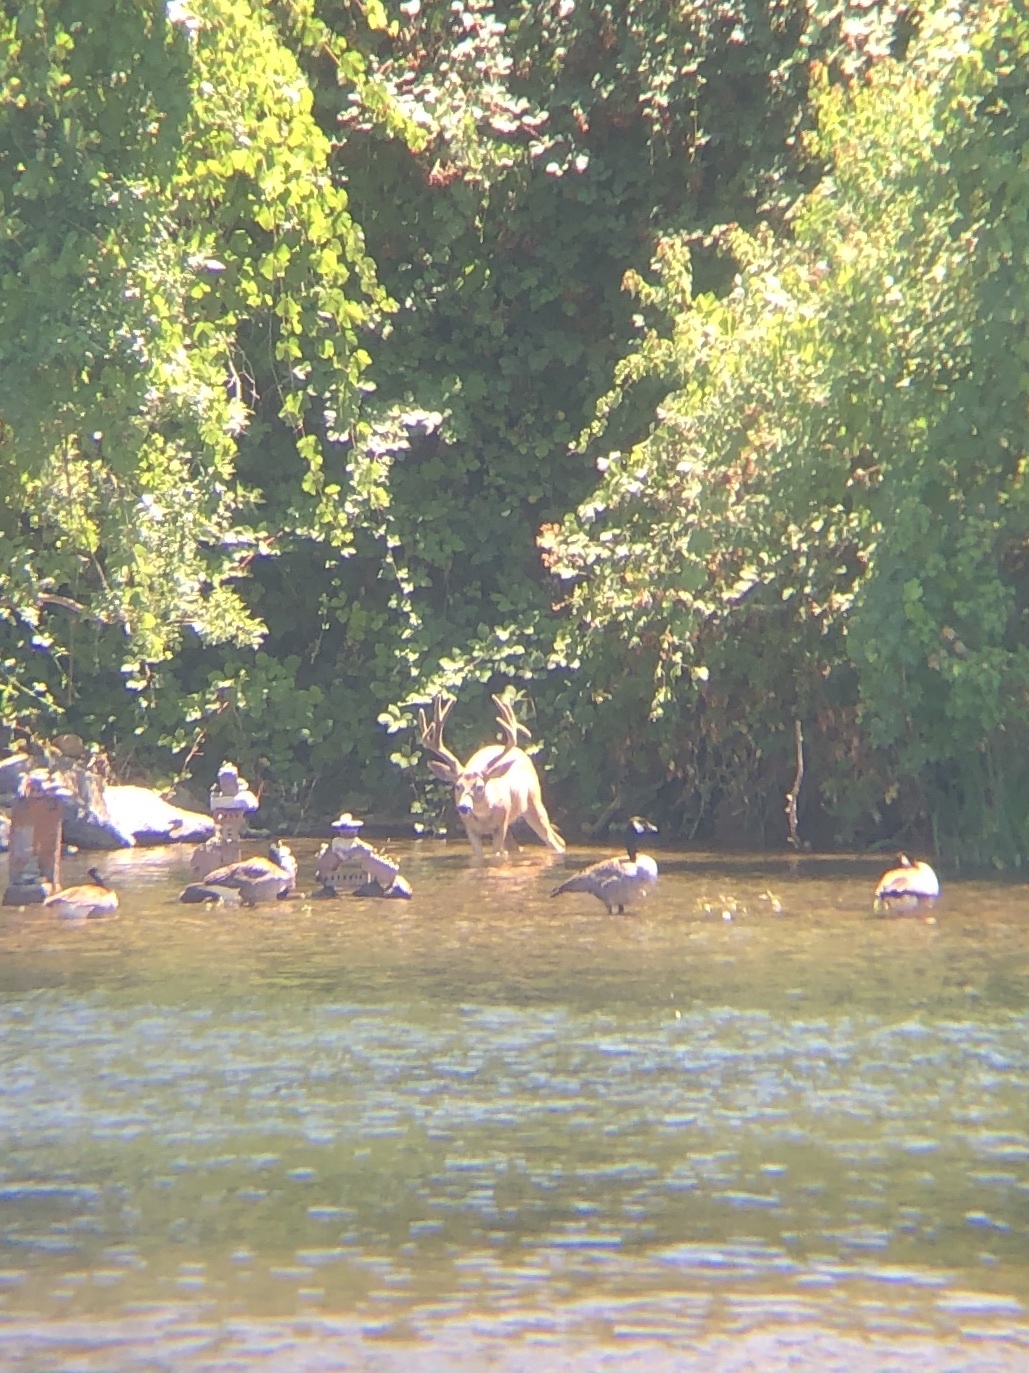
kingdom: Animalia
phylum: Chordata
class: Mammalia
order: Artiodactyla
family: Cervidae
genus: Odocoileus
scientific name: Odocoileus hemionus
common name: Mule deer
